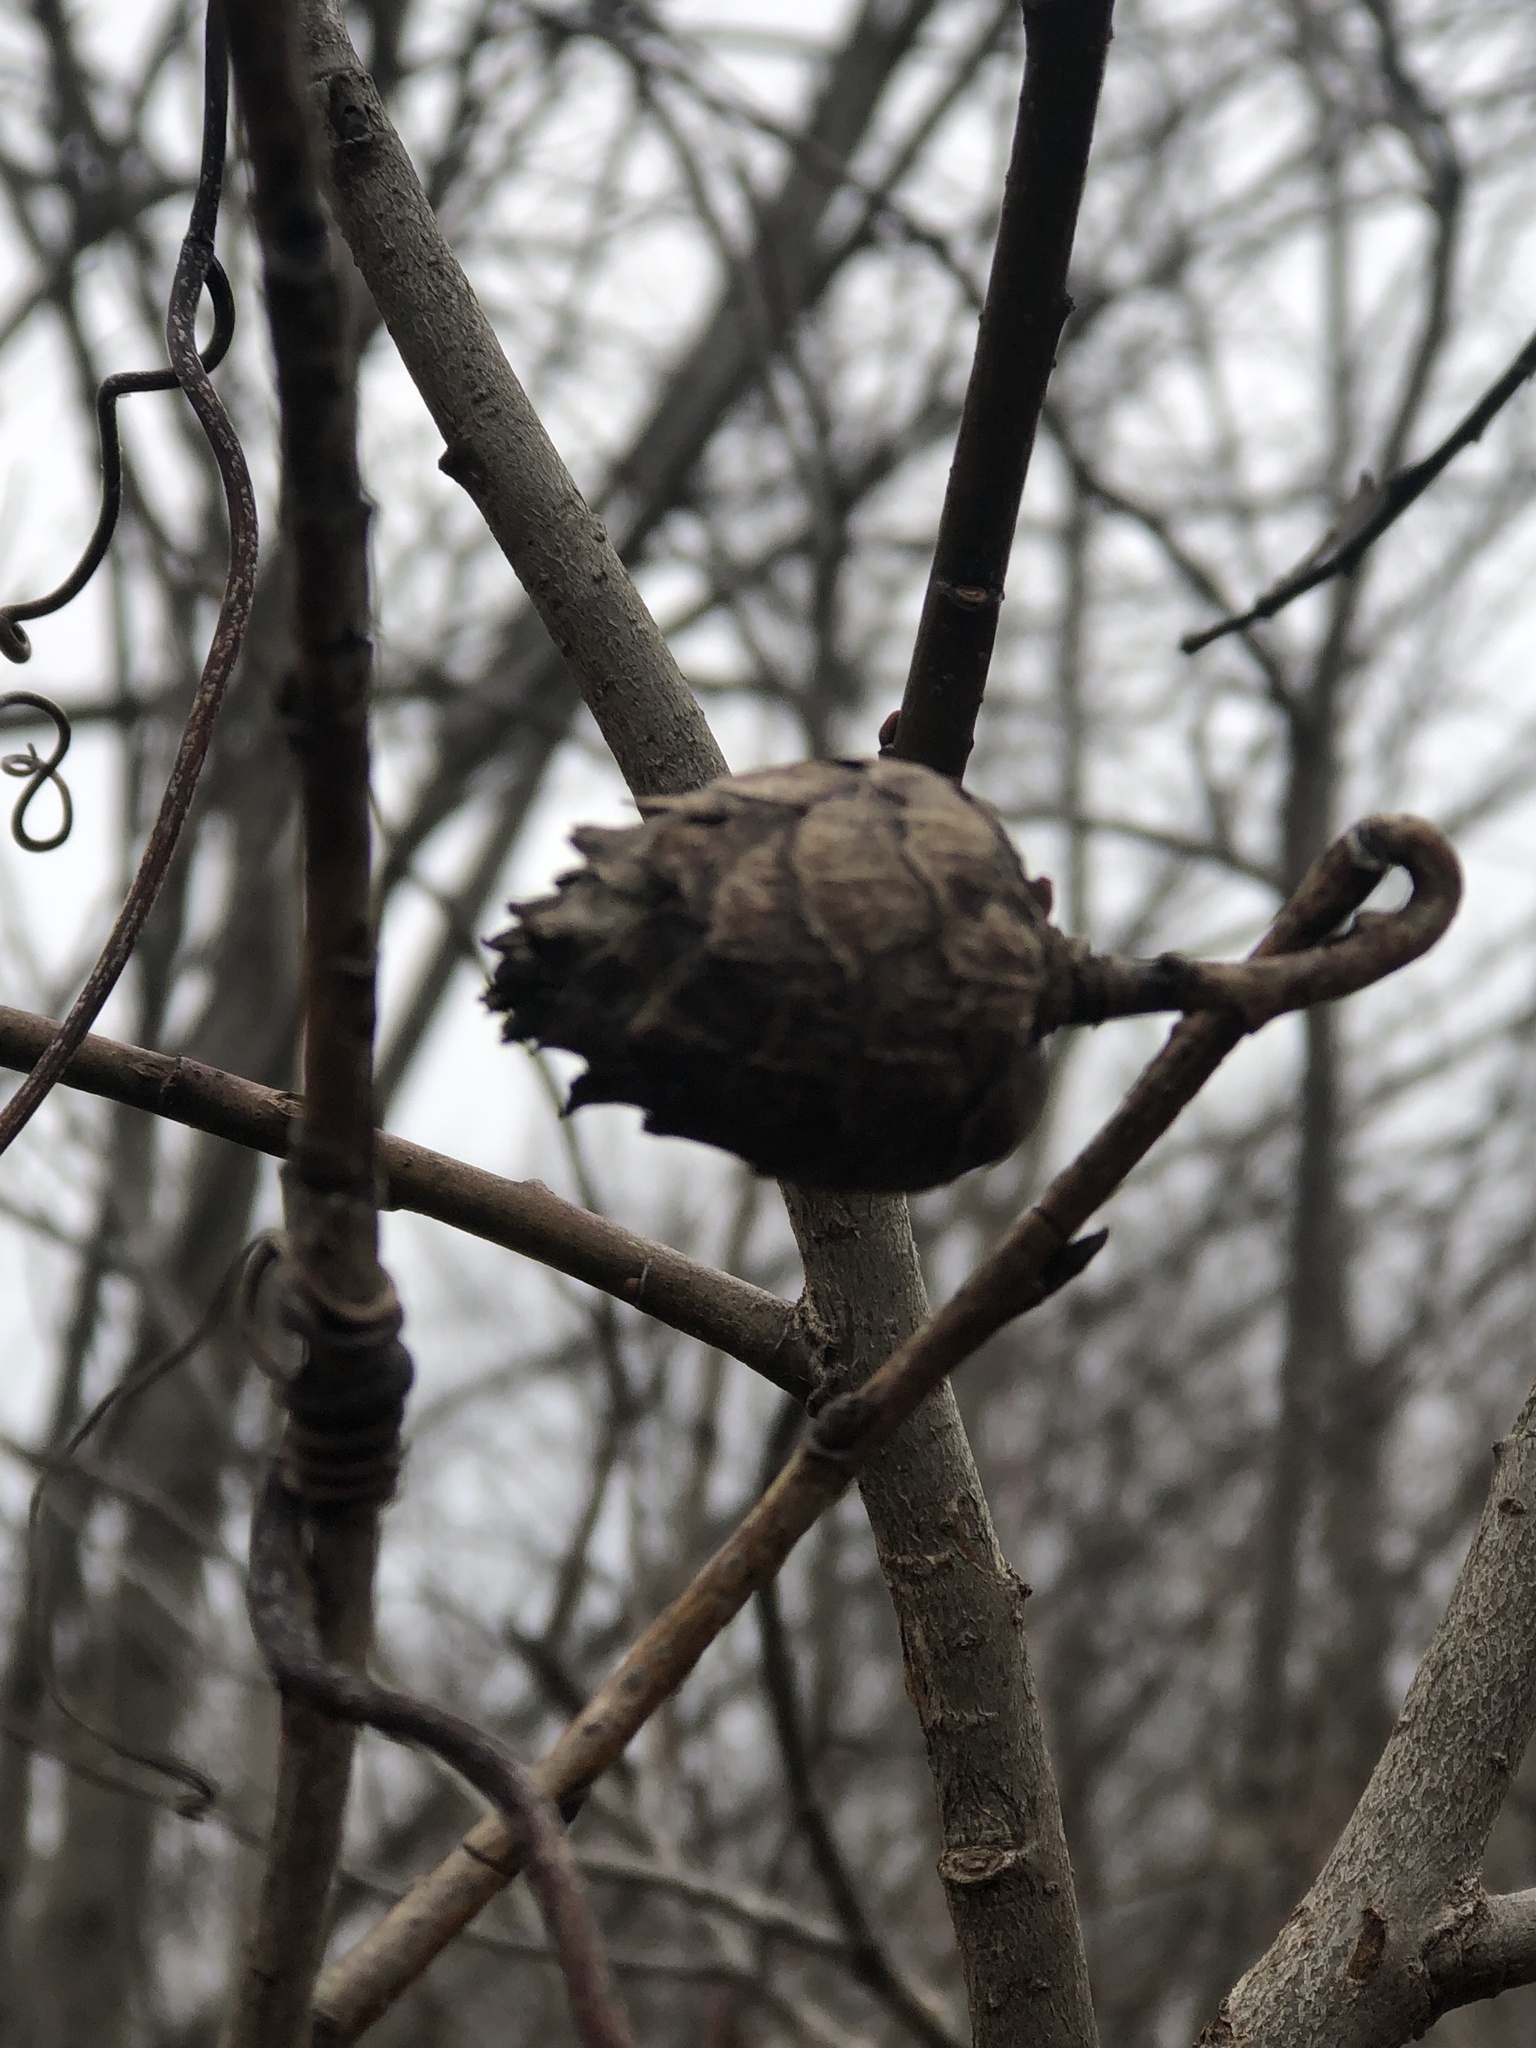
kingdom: Animalia
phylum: Arthropoda
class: Insecta
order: Diptera
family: Cecidomyiidae
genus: Rabdophaga
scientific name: Rabdophaga strobiloides
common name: Willow pinecone gall midge
